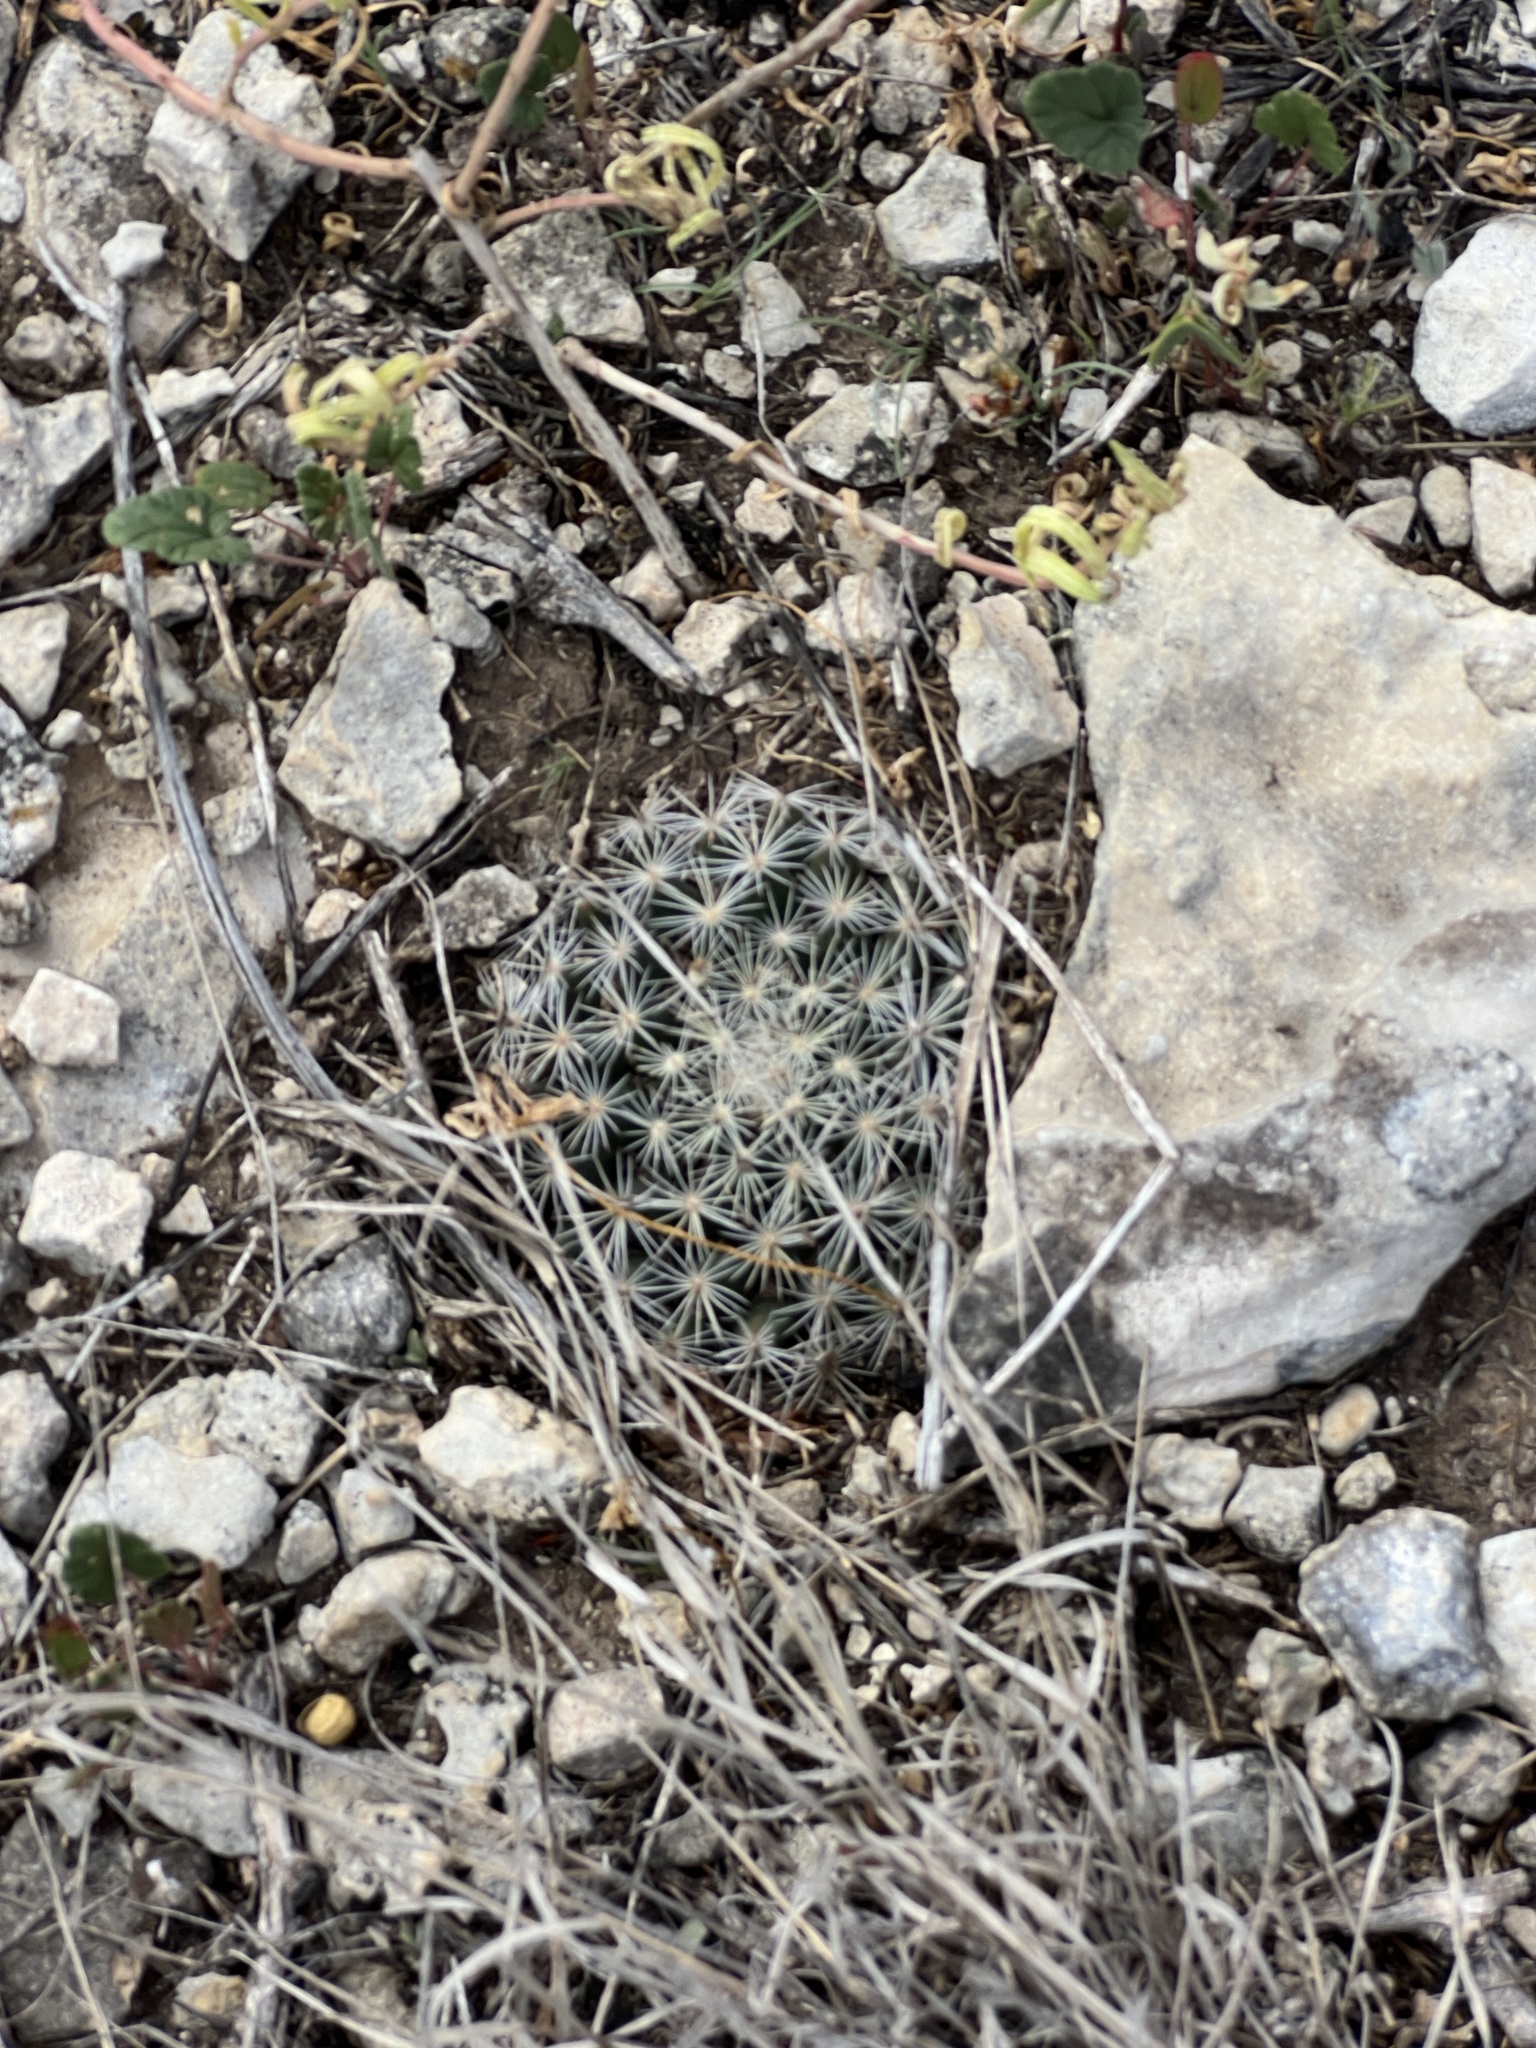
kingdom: Plantae
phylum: Tracheophyta
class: Magnoliopsida
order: Caryophyllales
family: Cactaceae
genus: Mammillaria
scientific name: Mammillaria heyderi
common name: Little nipple cactus
